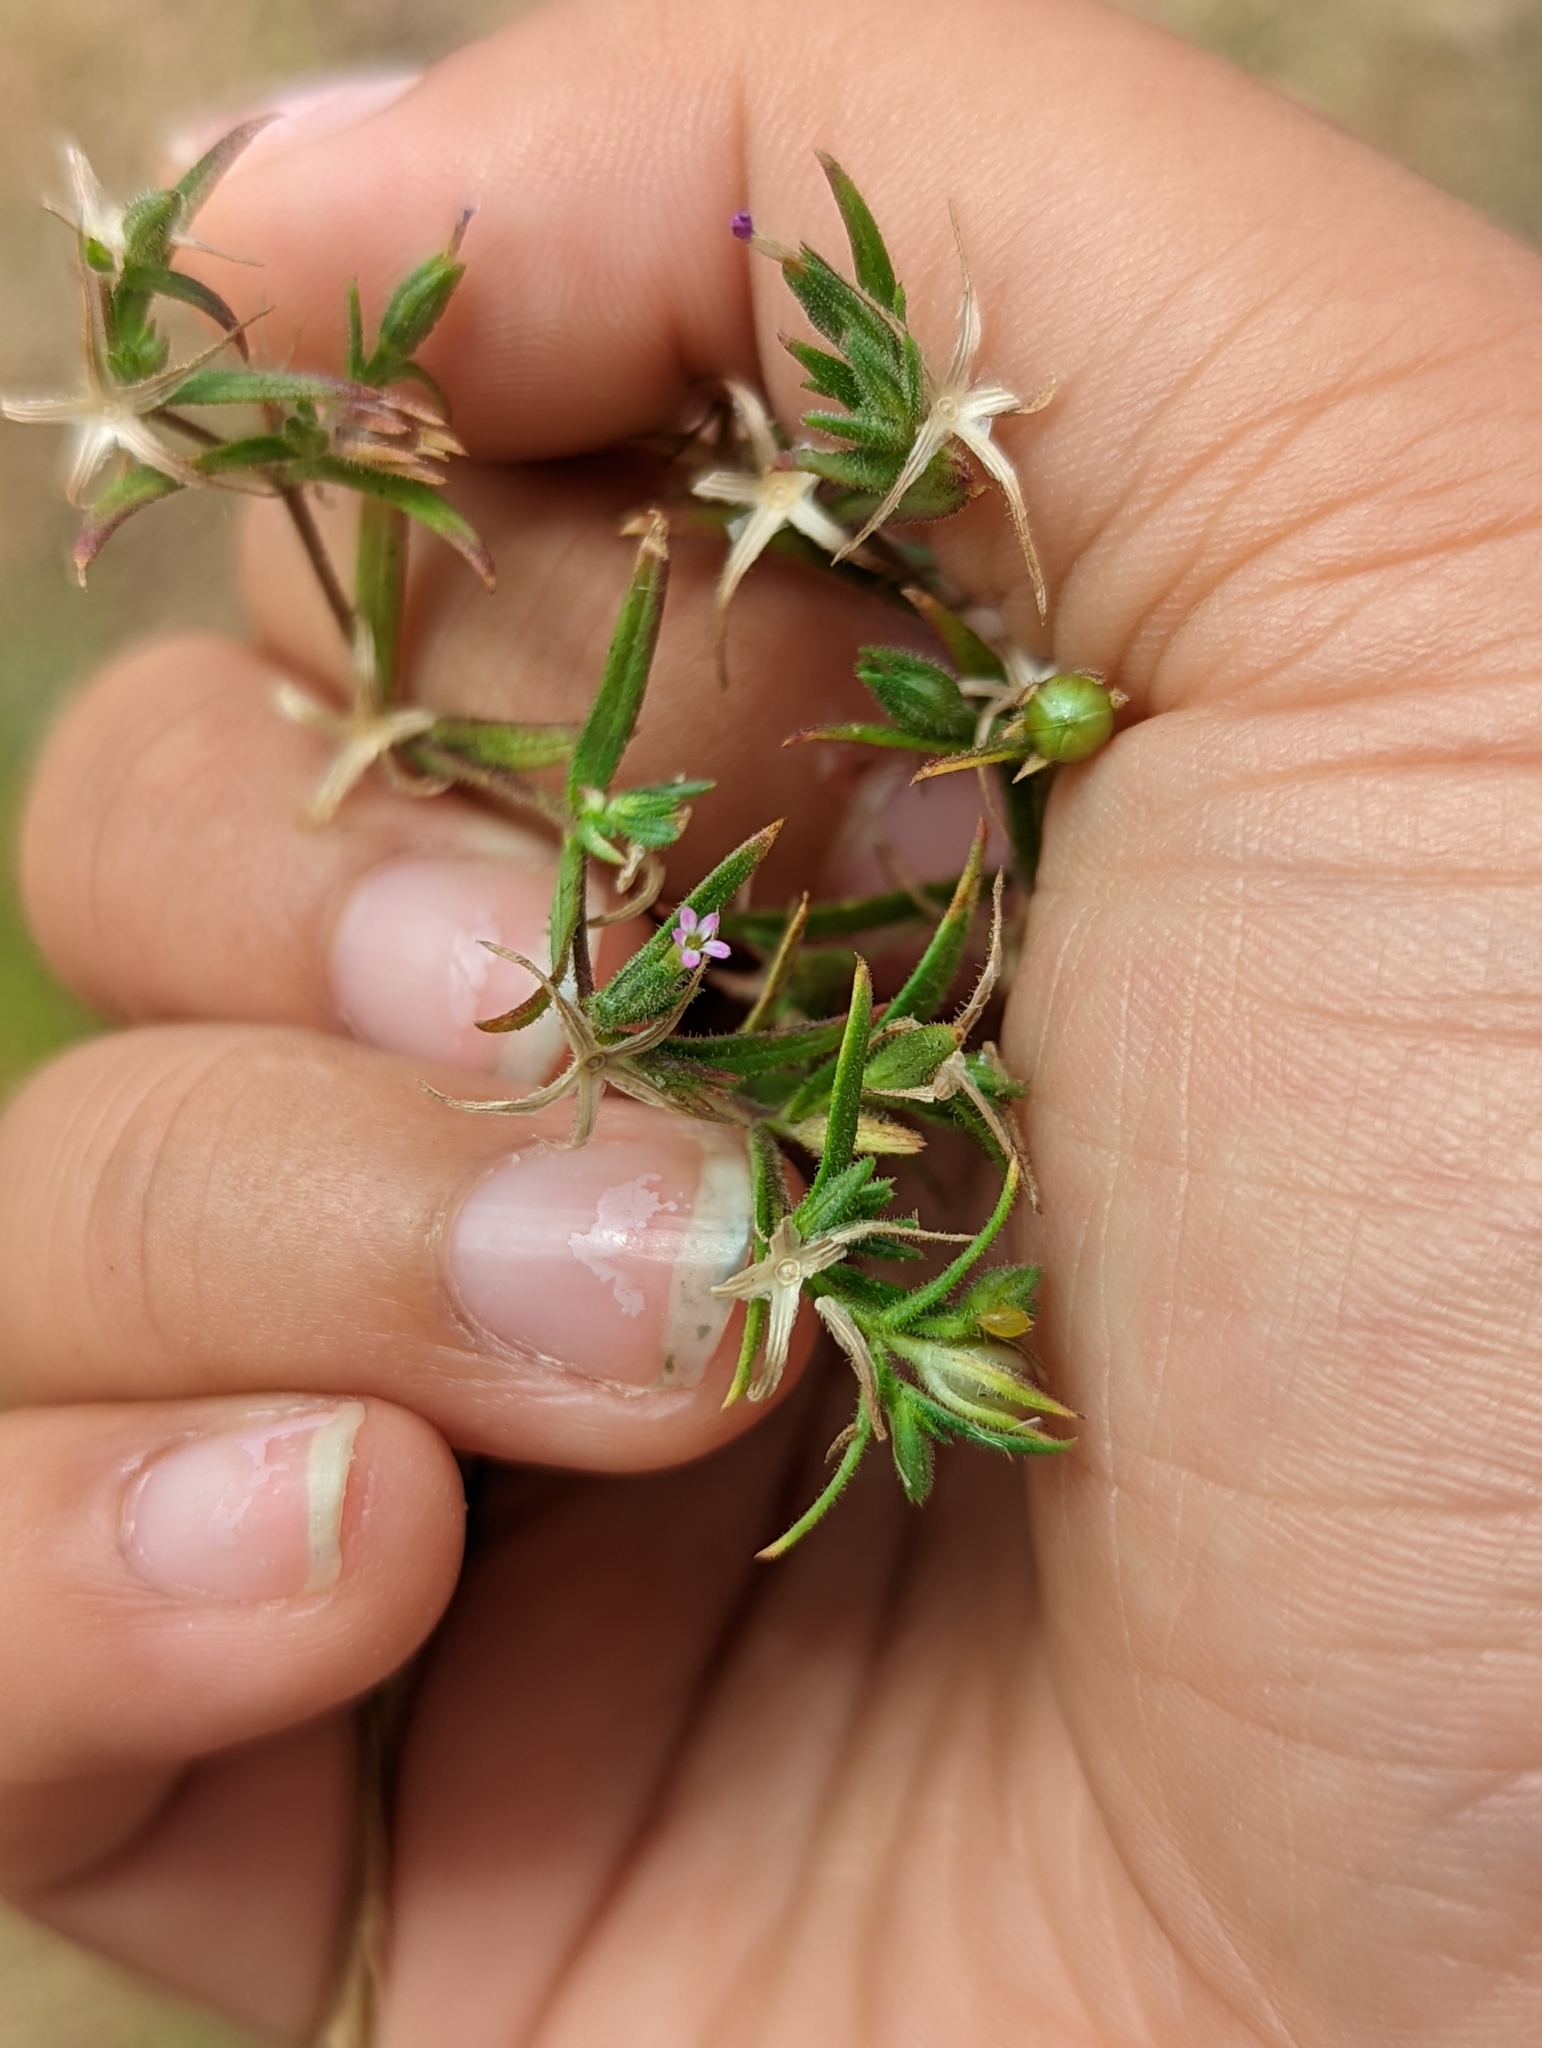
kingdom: Plantae
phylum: Tracheophyta
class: Magnoliopsida
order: Ericales
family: Polemoniaceae
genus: Phlox
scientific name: Phlox gracilis
